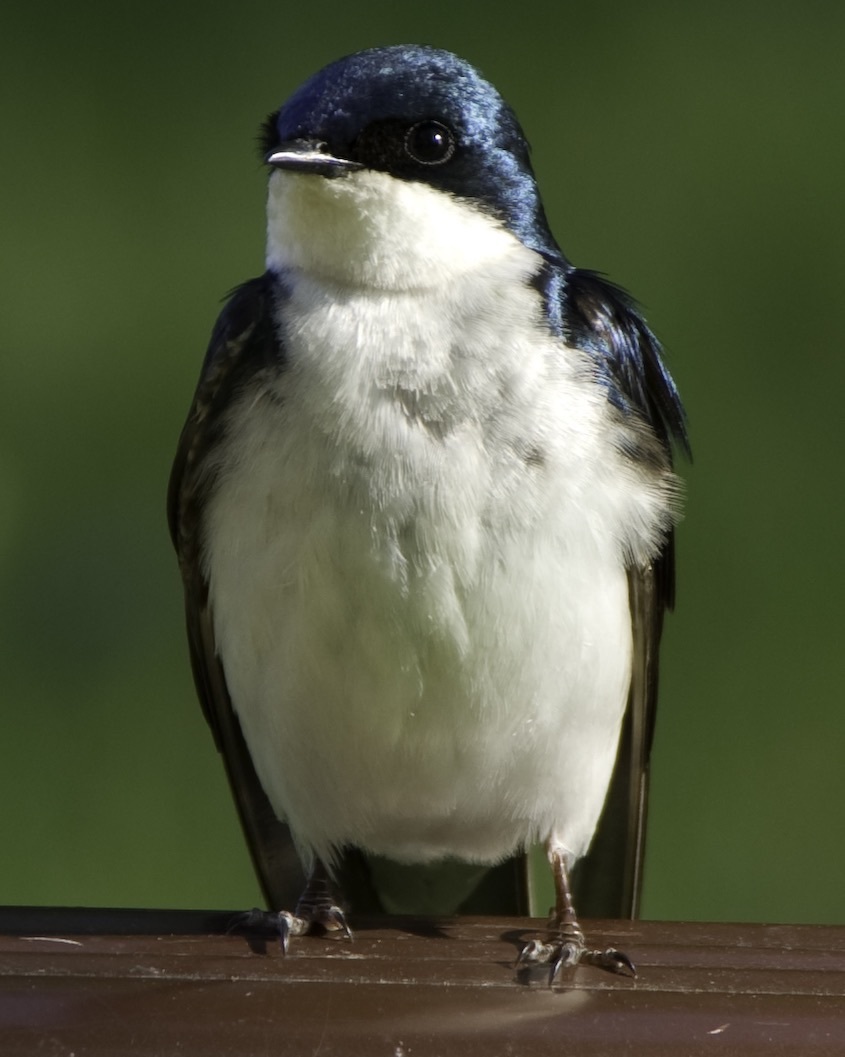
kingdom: Animalia
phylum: Chordata
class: Aves
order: Passeriformes
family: Hirundinidae
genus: Tachycineta
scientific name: Tachycineta bicolor
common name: Tree swallow
